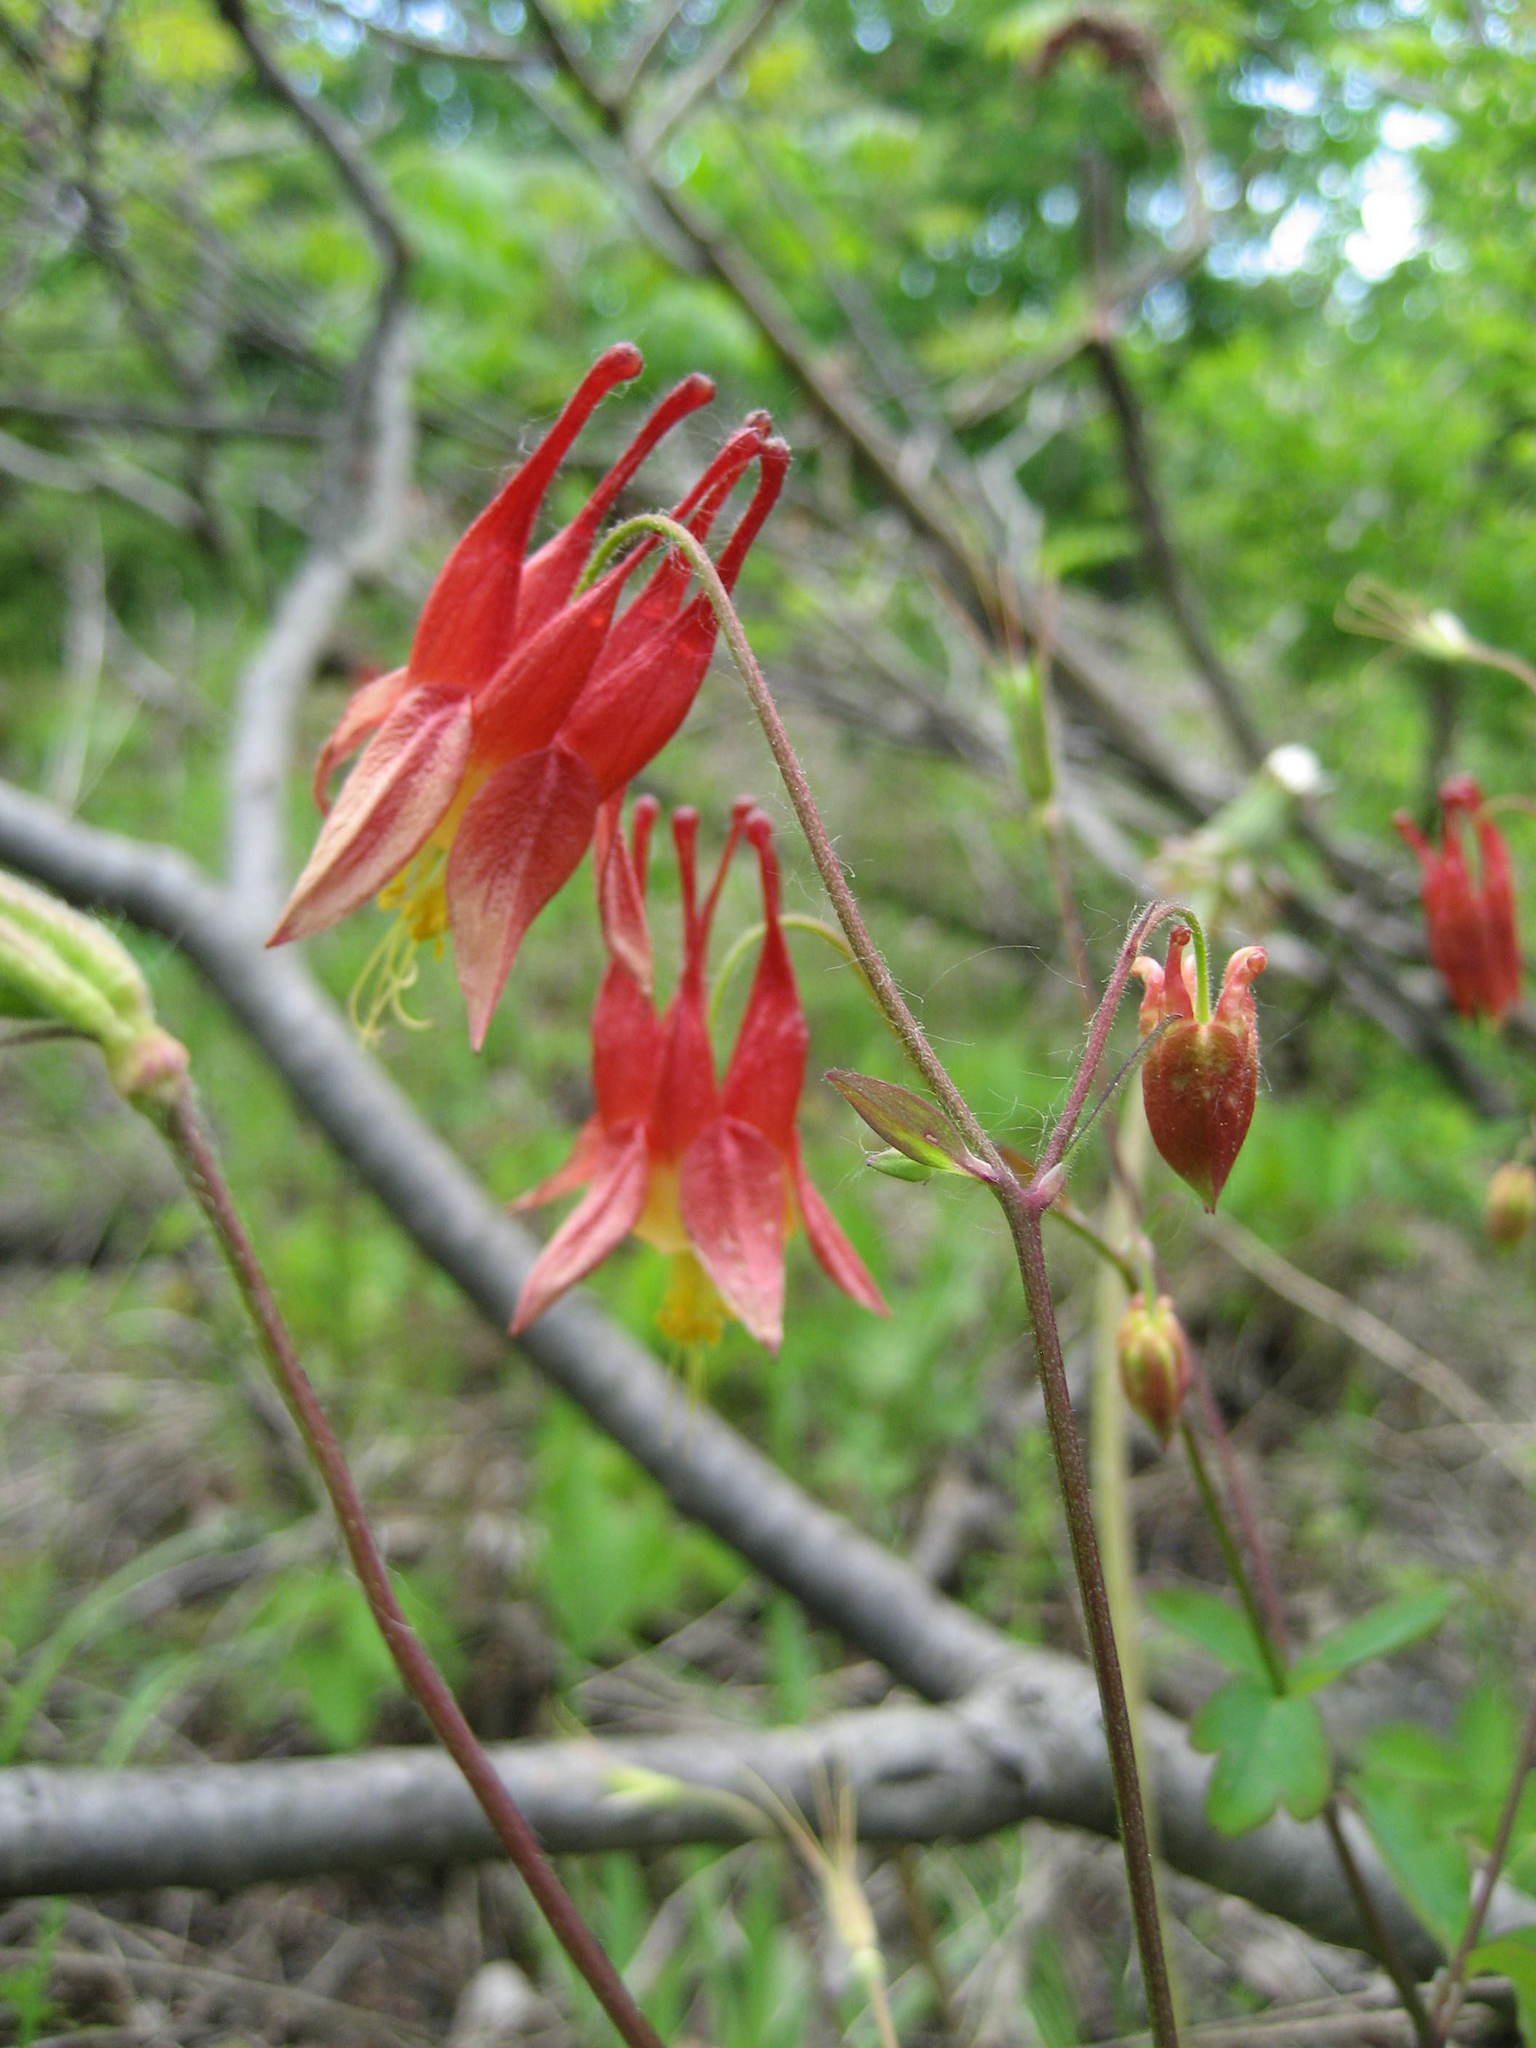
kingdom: Plantae
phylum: Tracheophyta
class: Magnoliopsida
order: Ranunculales
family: Ranunculaceae
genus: Aquilegia
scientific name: Aquilegia canadensis
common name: American columbine
